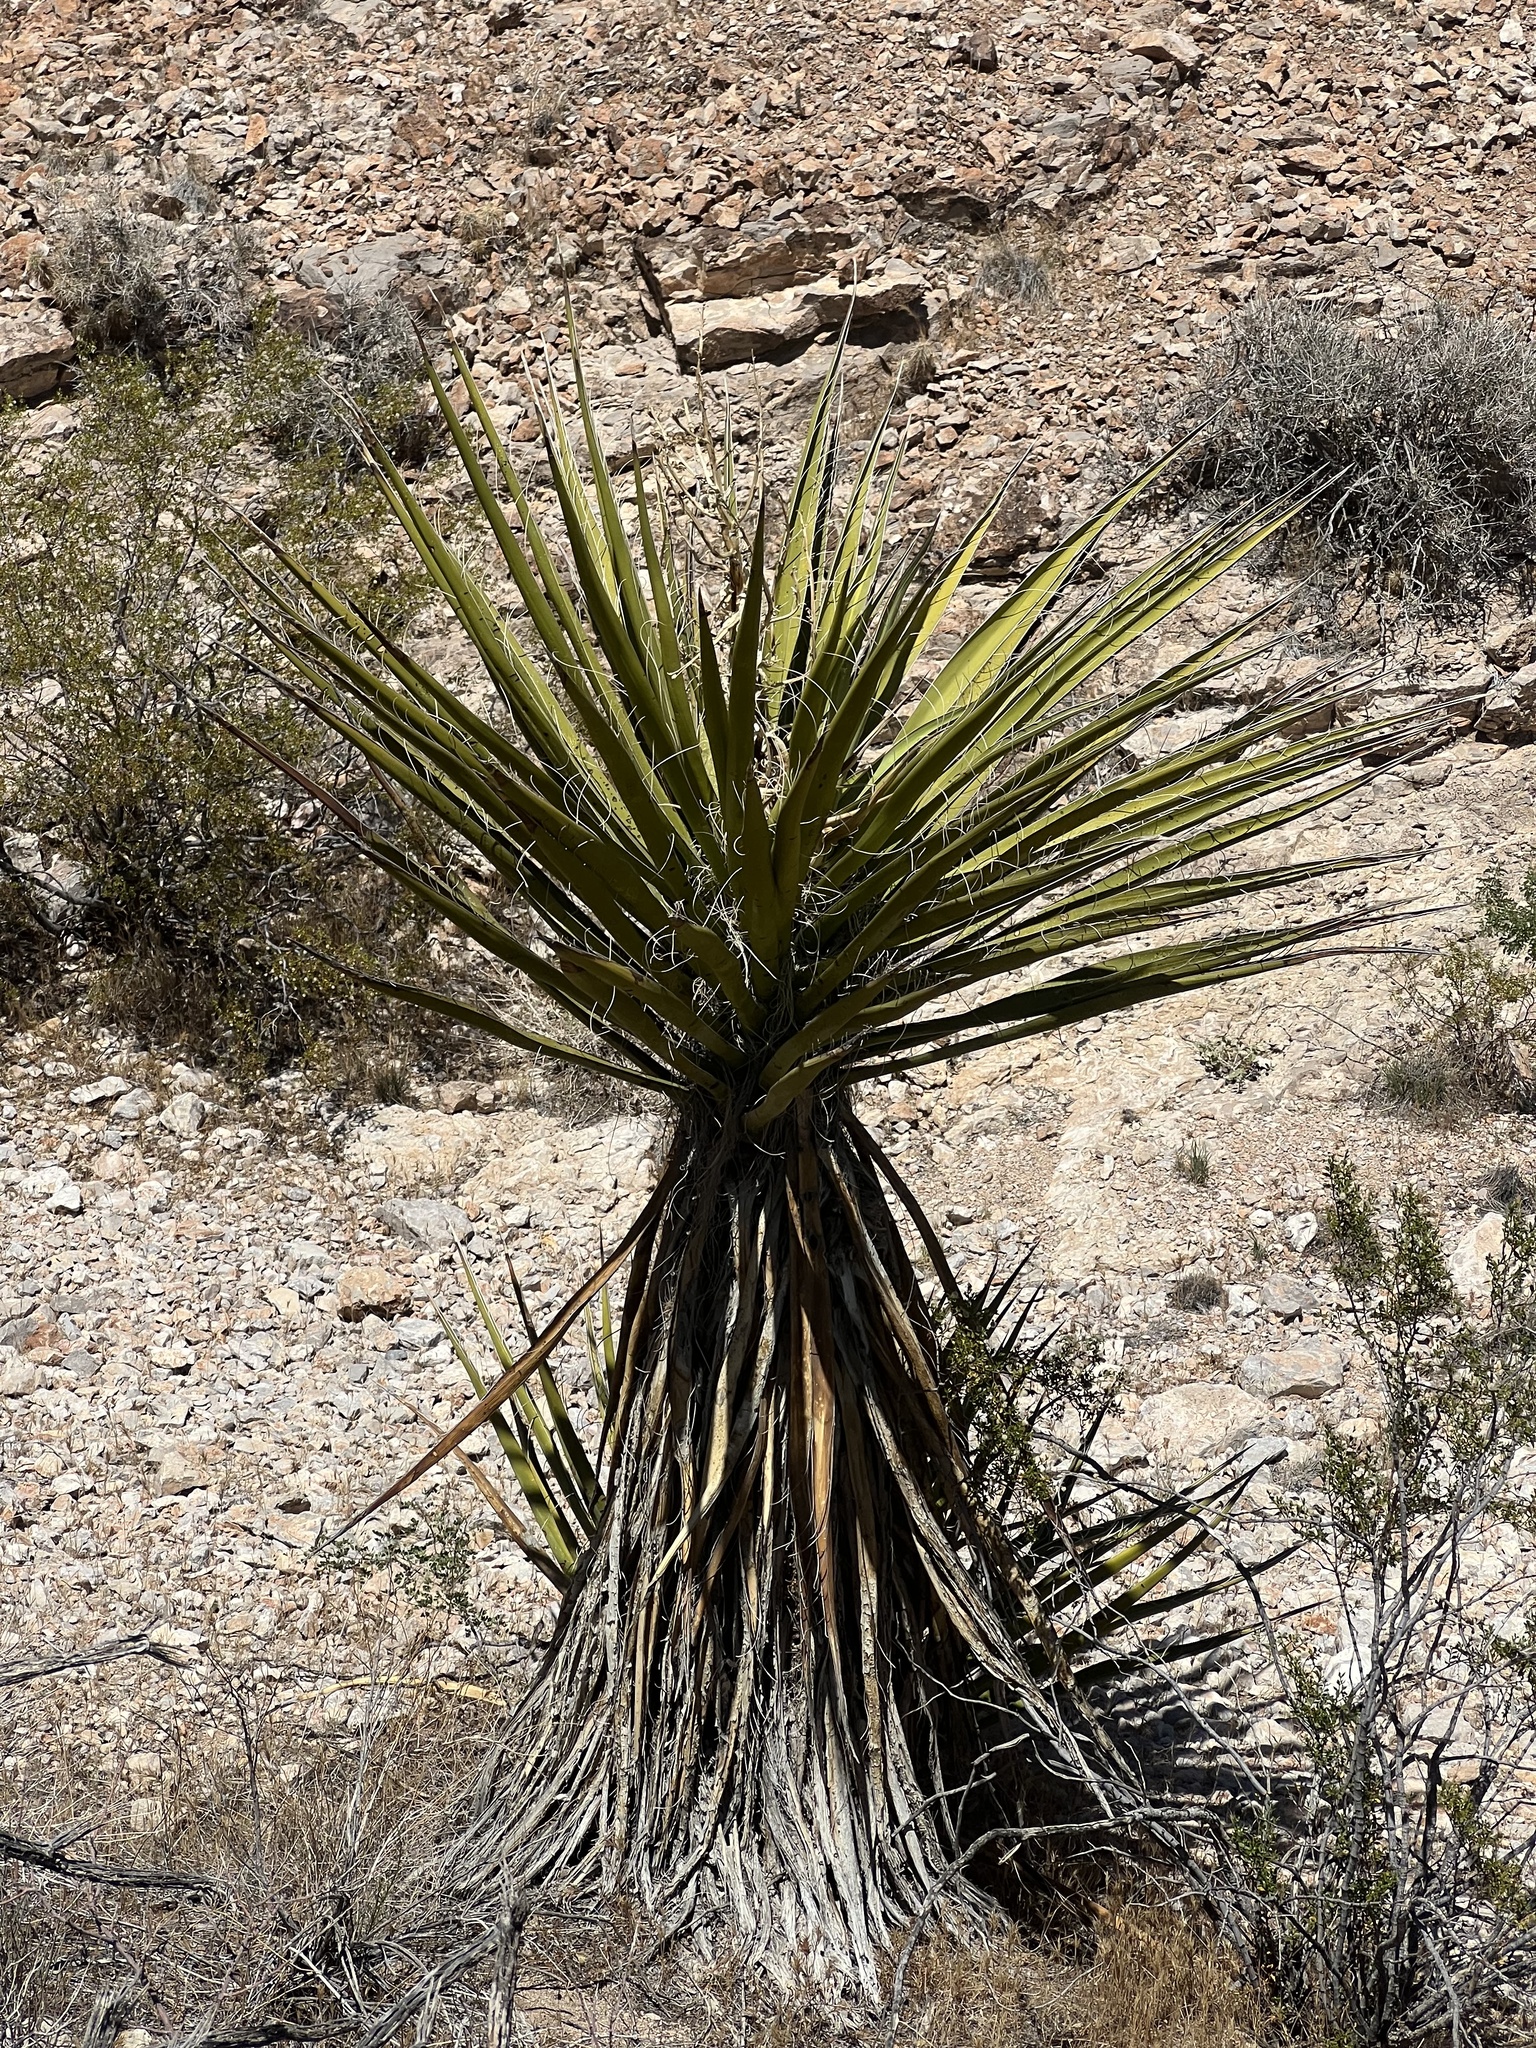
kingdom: Plantae
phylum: Tracheophyta
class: Liliopsida
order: Asparagales
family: Asparagaceae
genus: Yucca
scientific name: Yucca schidigera
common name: Mojave yucca
